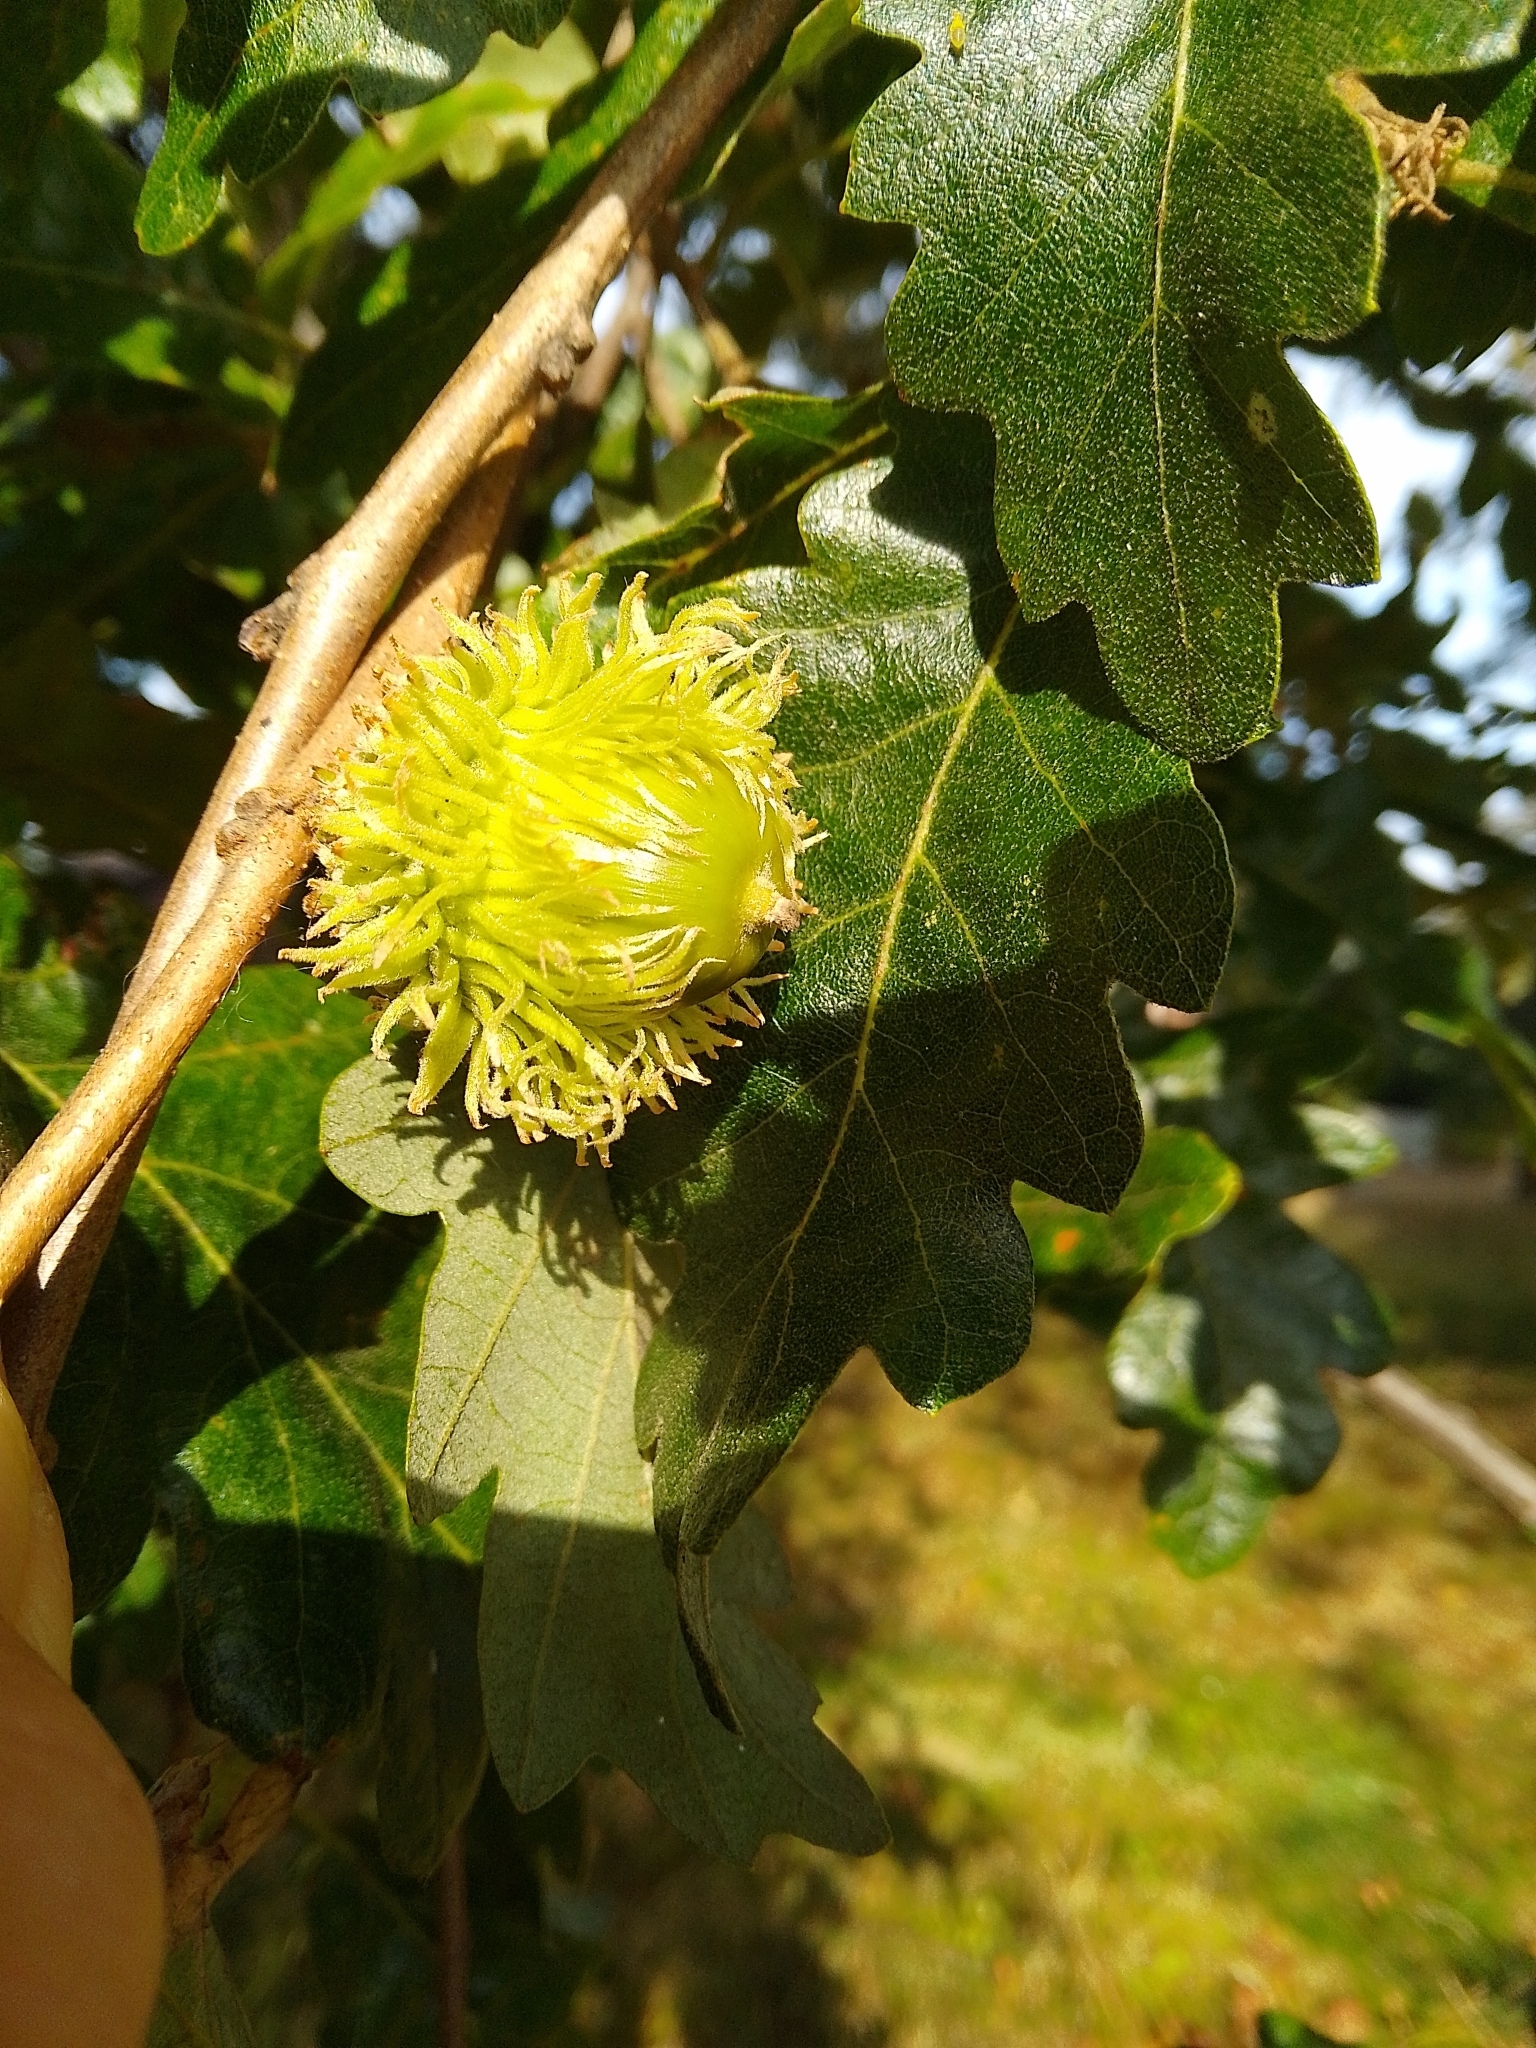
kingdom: Plantae
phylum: Tracheophyta
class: Magnoliopsida
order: Fagales
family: Fagaceae
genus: Quercus
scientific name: Quercus cerris
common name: Turkey oak
